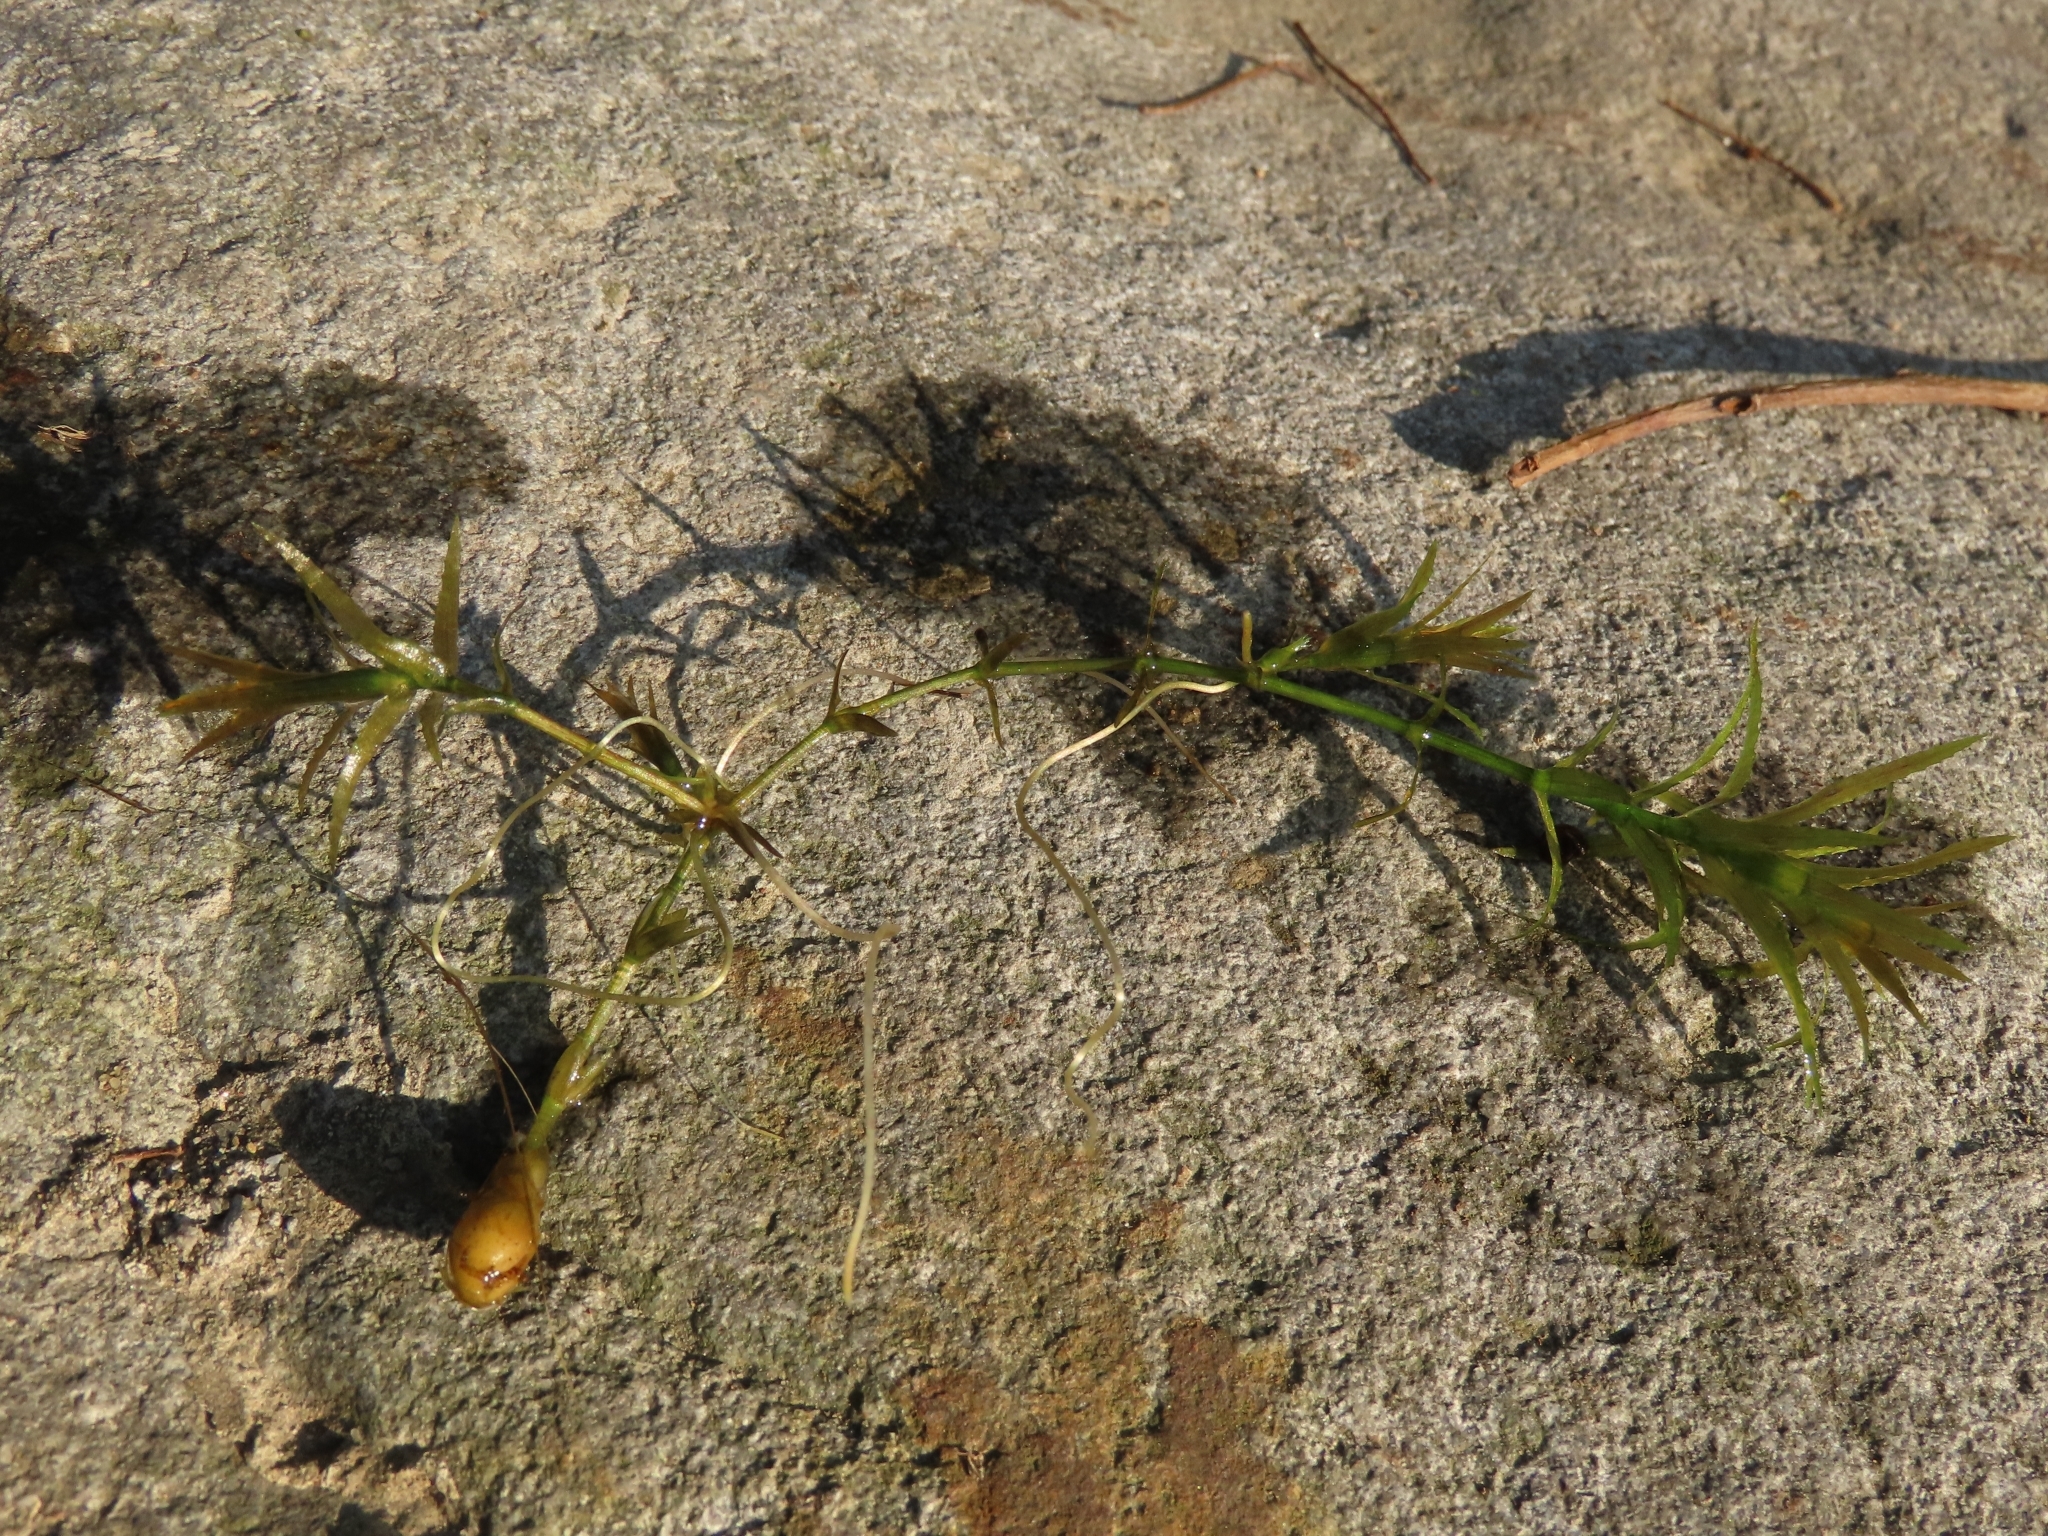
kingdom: Plantae
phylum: Tracheophyta
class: Liliopsida
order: Alismatales
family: Hydrocharitaceae
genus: Hydrilla
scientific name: Hydrilla verticillata
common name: Florida-elodea
